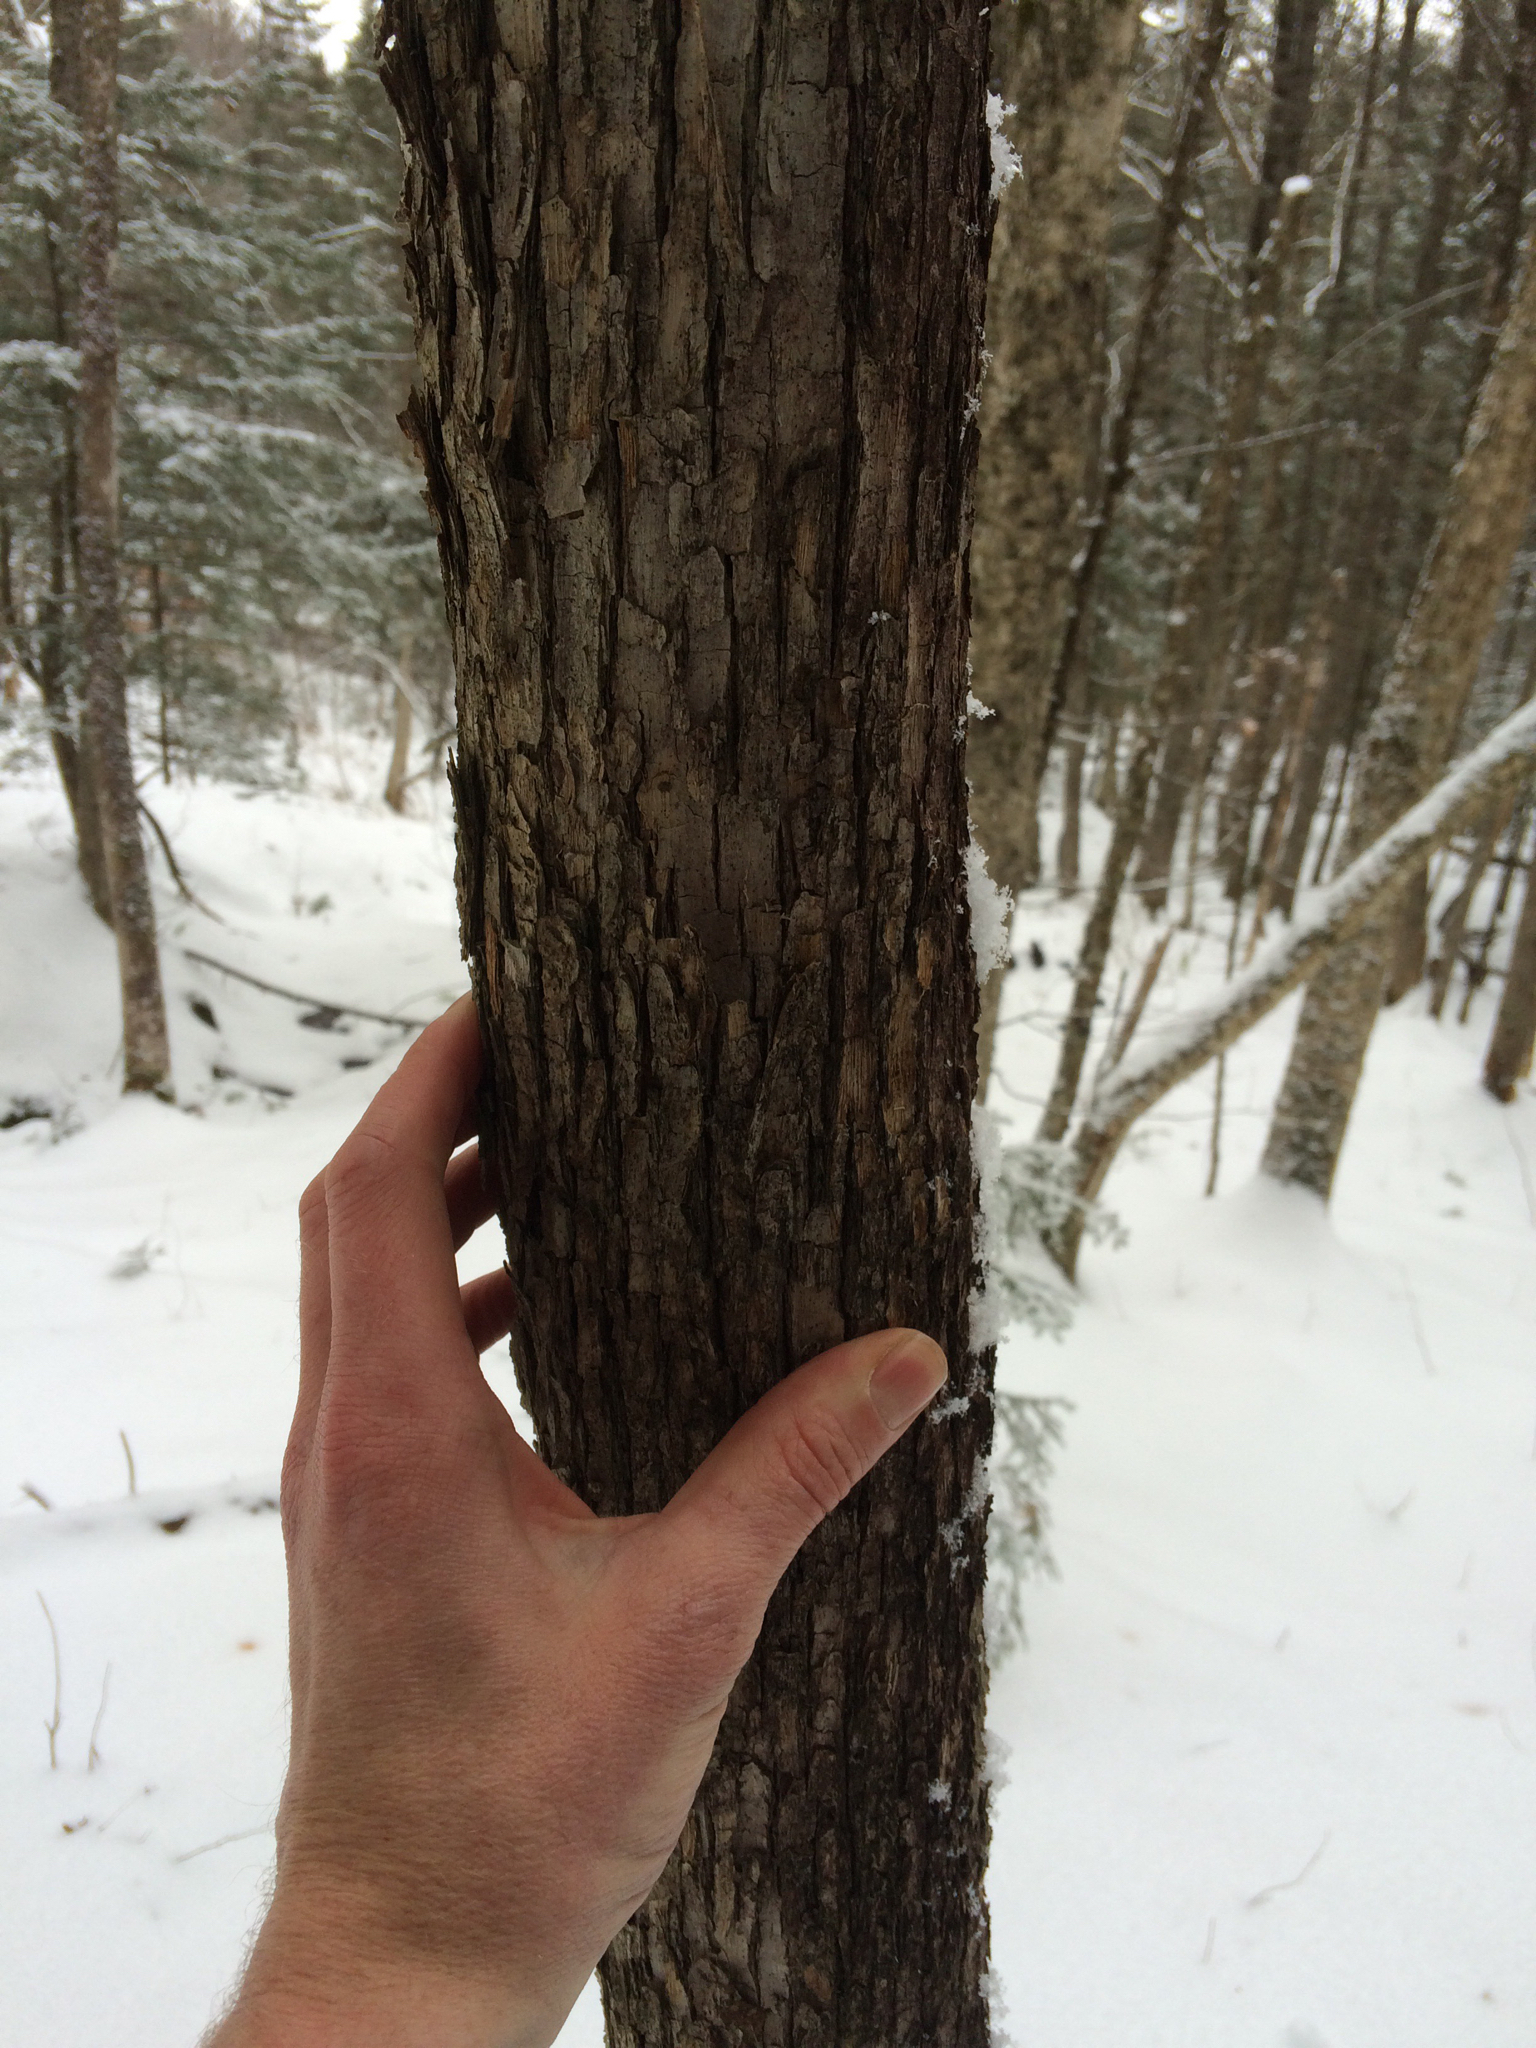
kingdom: Plantae
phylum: Tracheophyta
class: Magnoliopsida
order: Fagales
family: Betulaceae
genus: Ostrya
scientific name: Ostrya virginiana
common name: Ironwood
